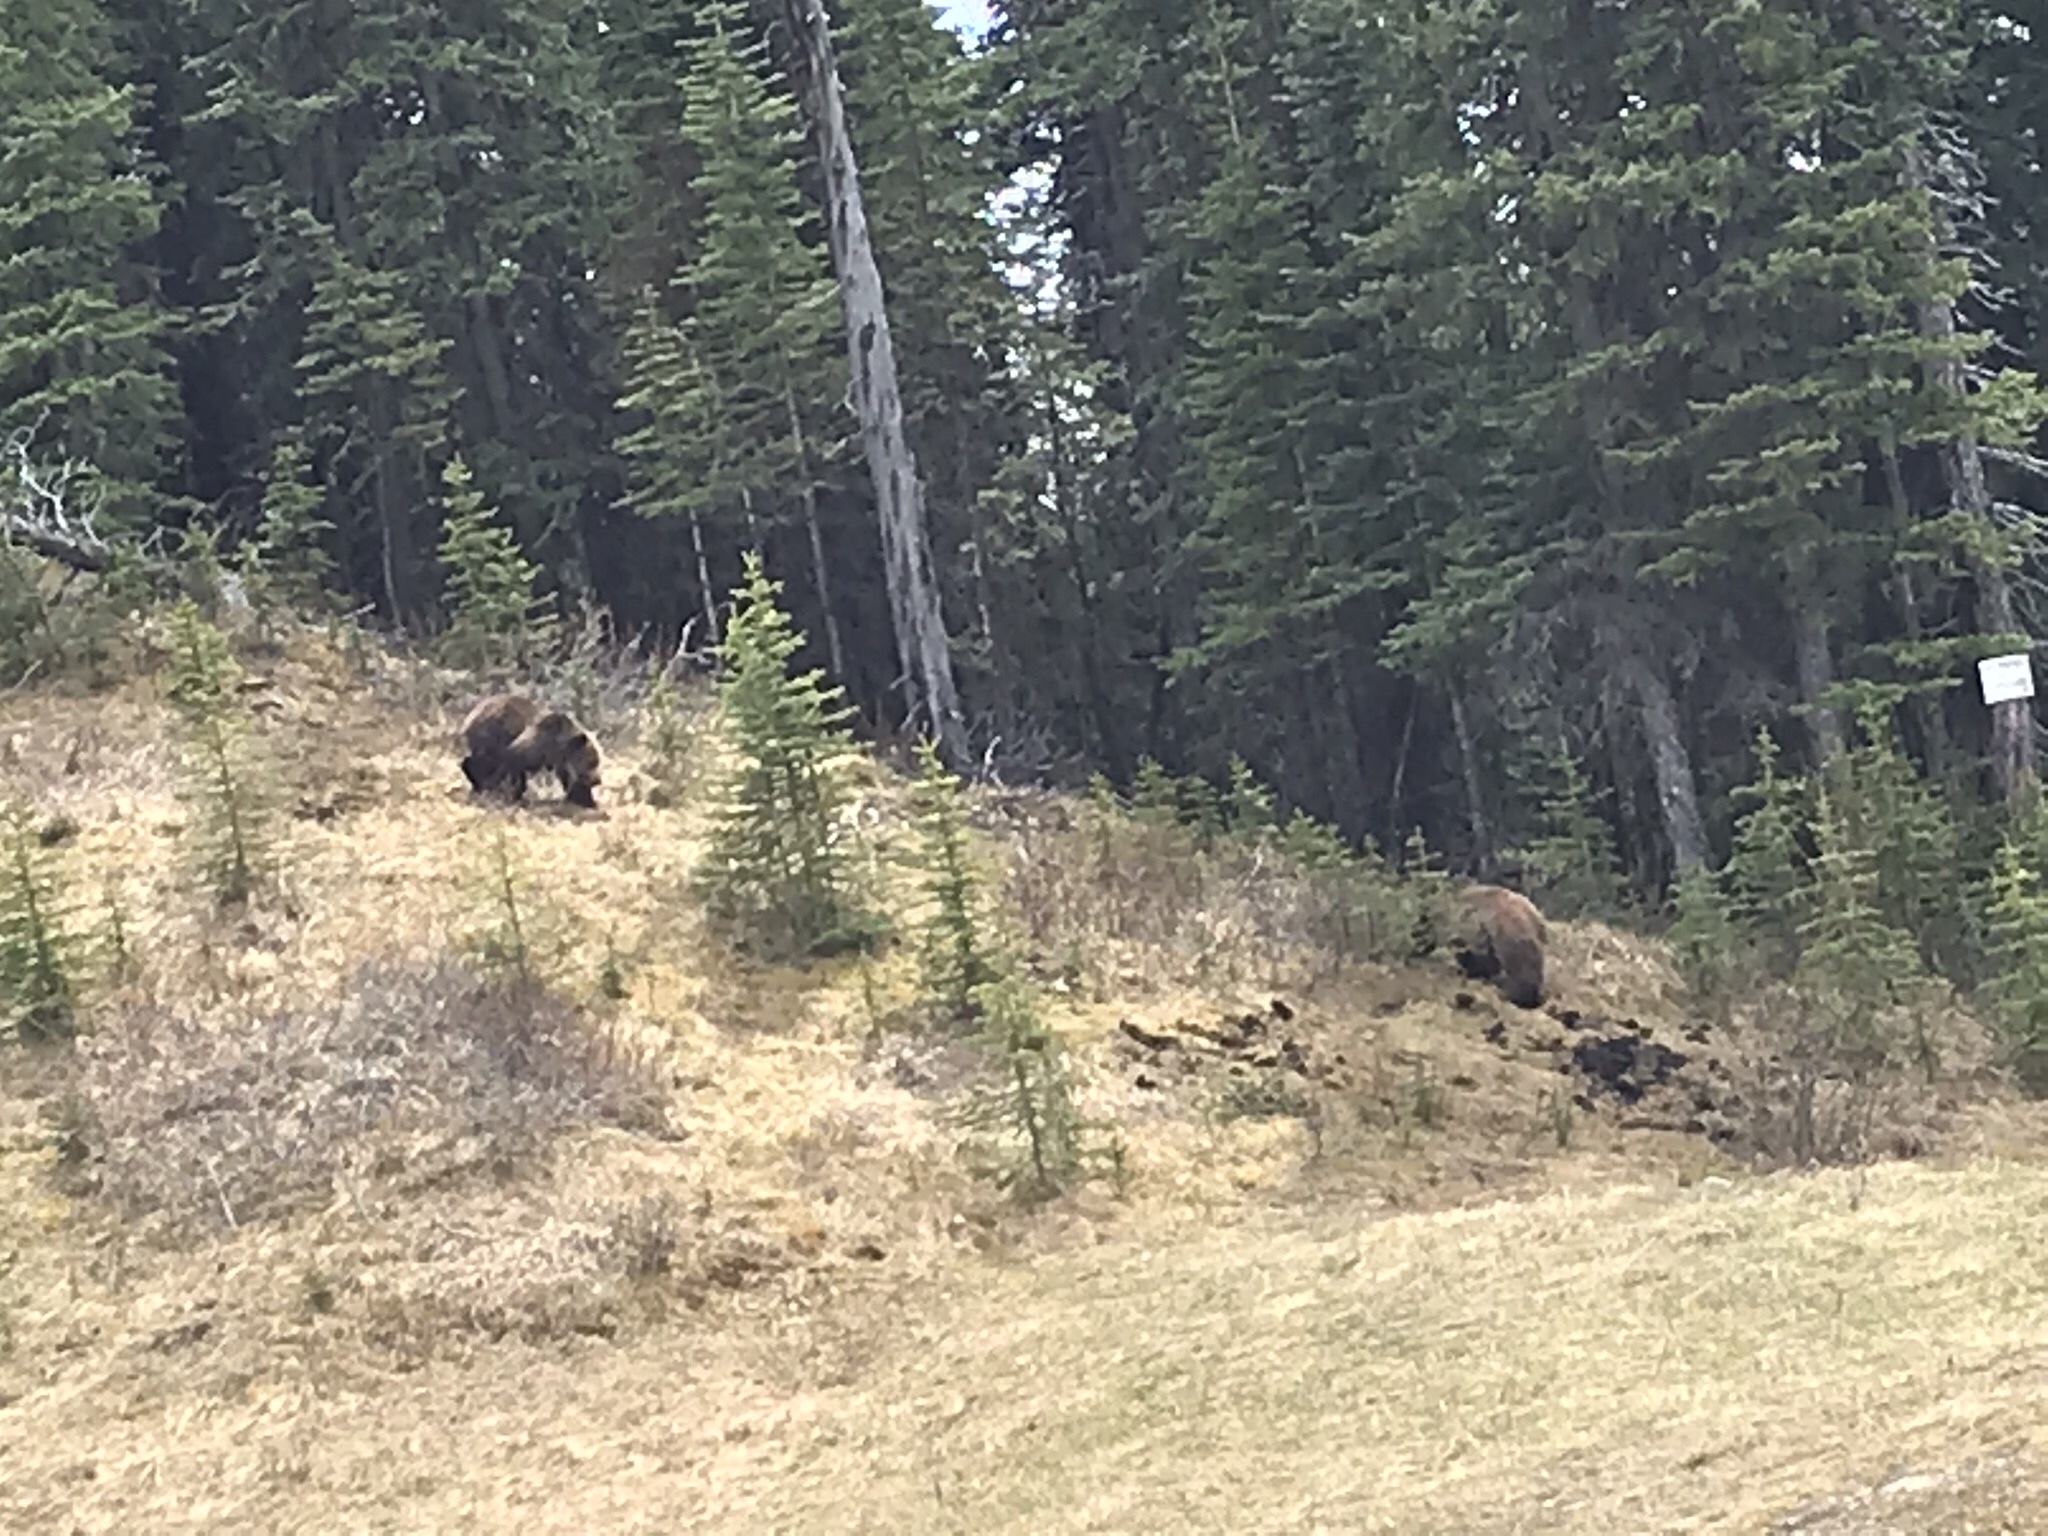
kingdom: Animalia
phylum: Chordata
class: Mammalia
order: Carnivora
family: Ursidae
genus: Ursus
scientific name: Ursus arctos
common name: Brown bear
